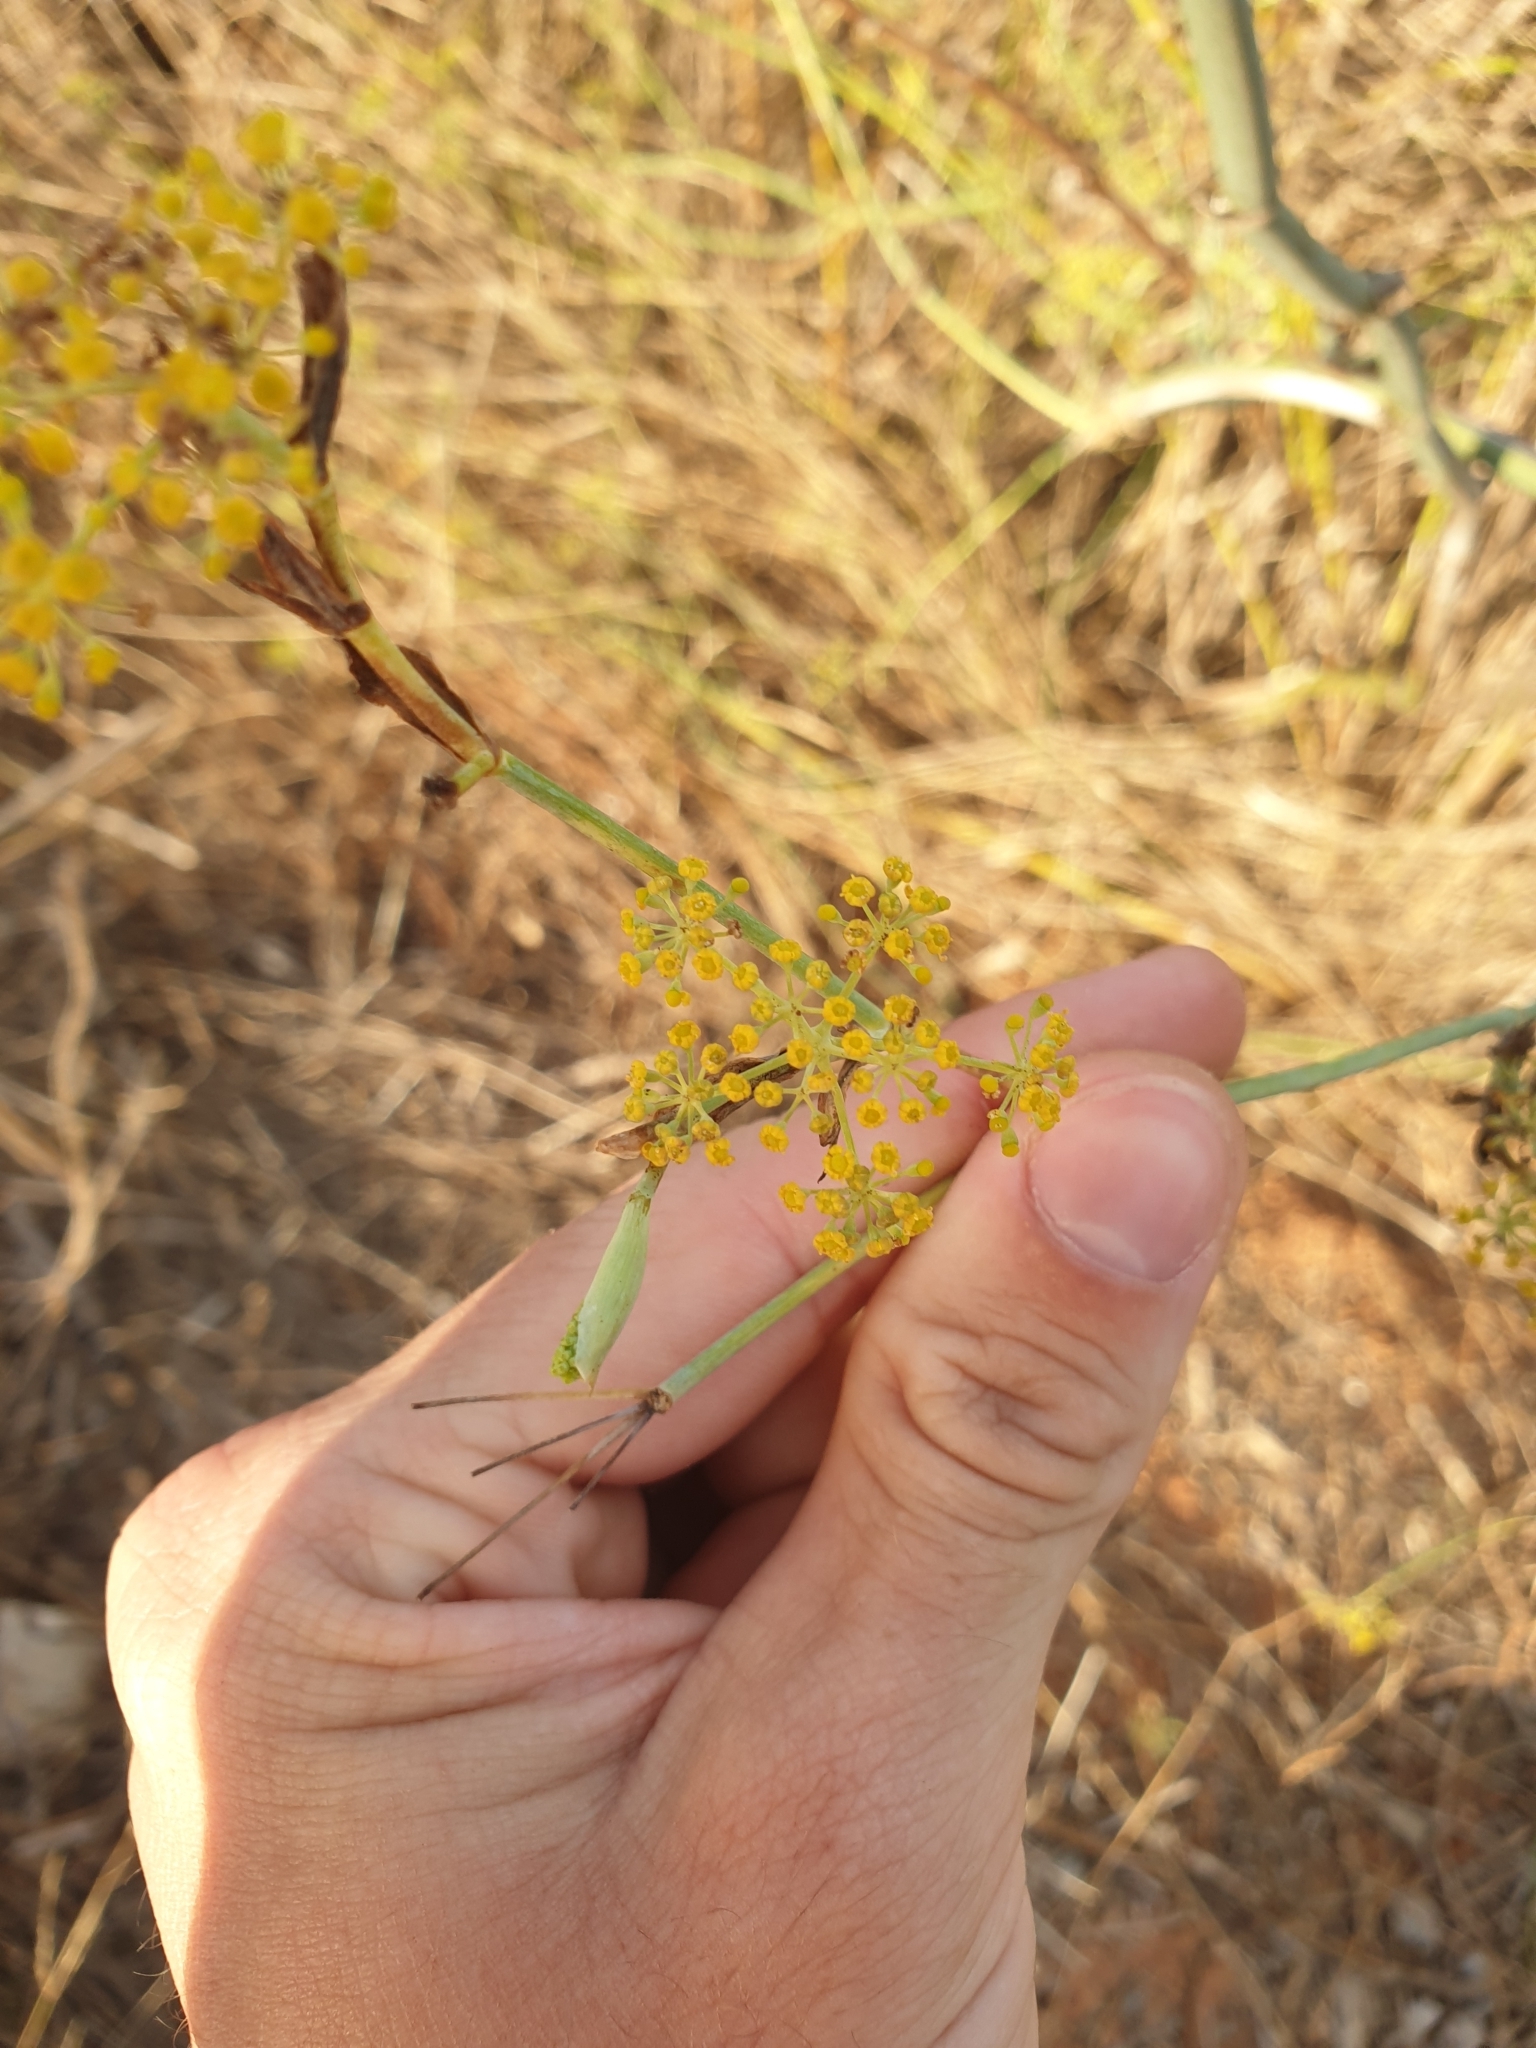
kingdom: Plantae
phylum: Tracheophyta
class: Magnoliopsida
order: Apiales
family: Apiaceae
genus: Foeniculum
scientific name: Foeniculum vulgare
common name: Fennel
